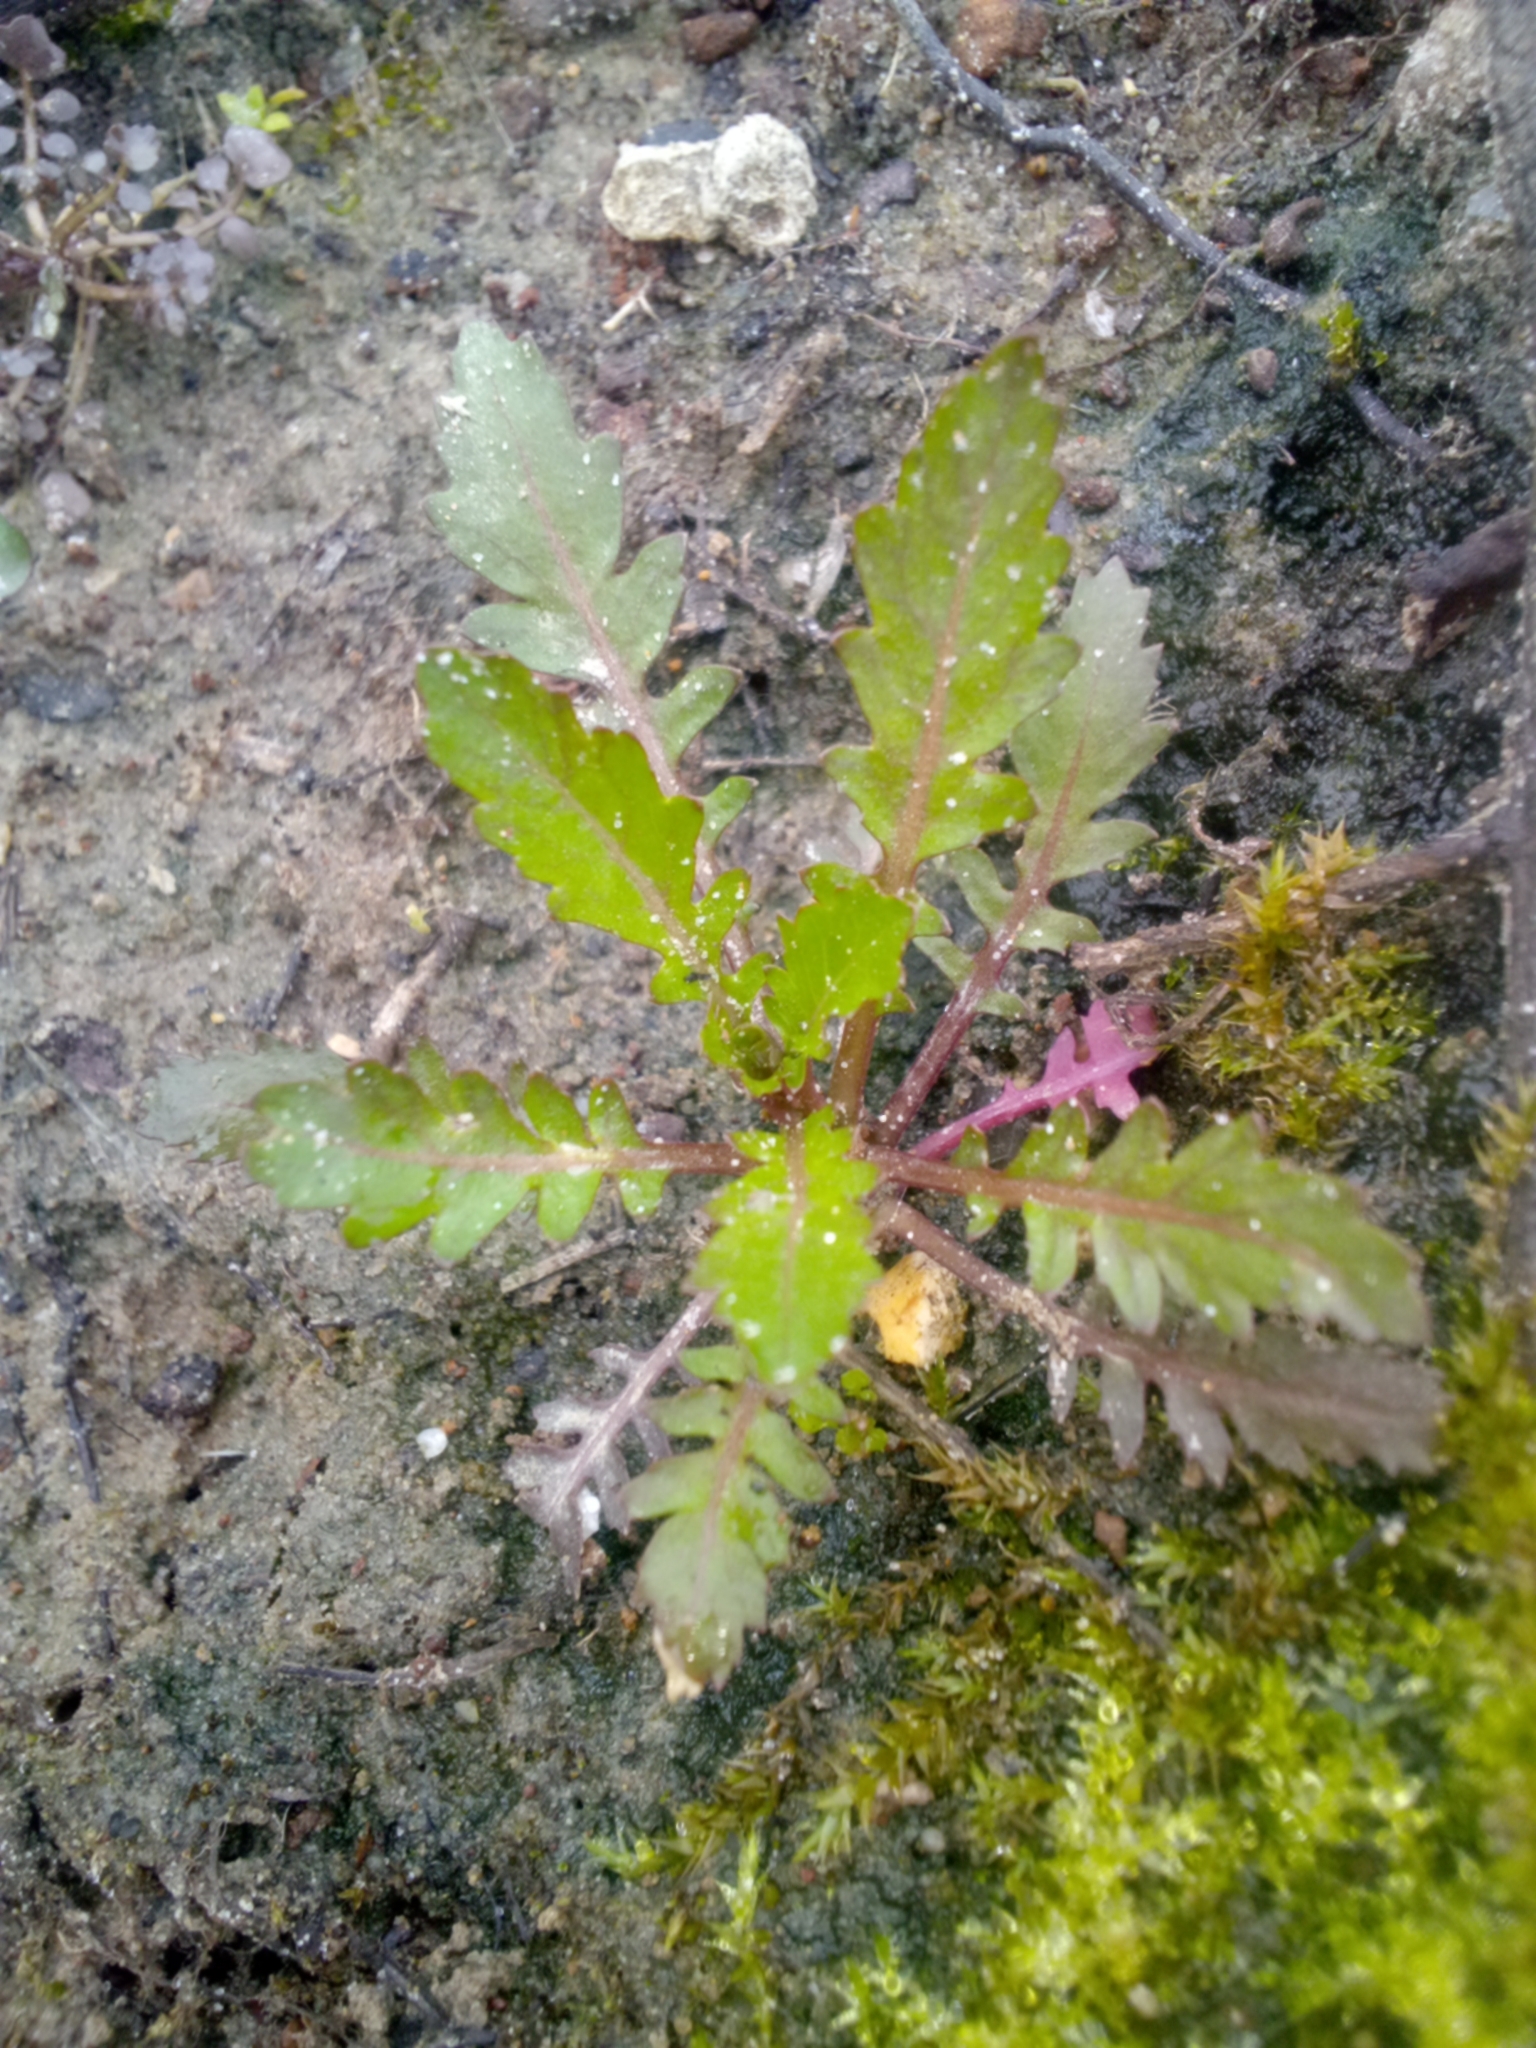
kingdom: Plantae
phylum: Tracheophyta
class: Magnoliopsida
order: Brassicales
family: Brassicaceae
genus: Rorippa
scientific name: Rorippa palustris
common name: Marsh yellow-cress
